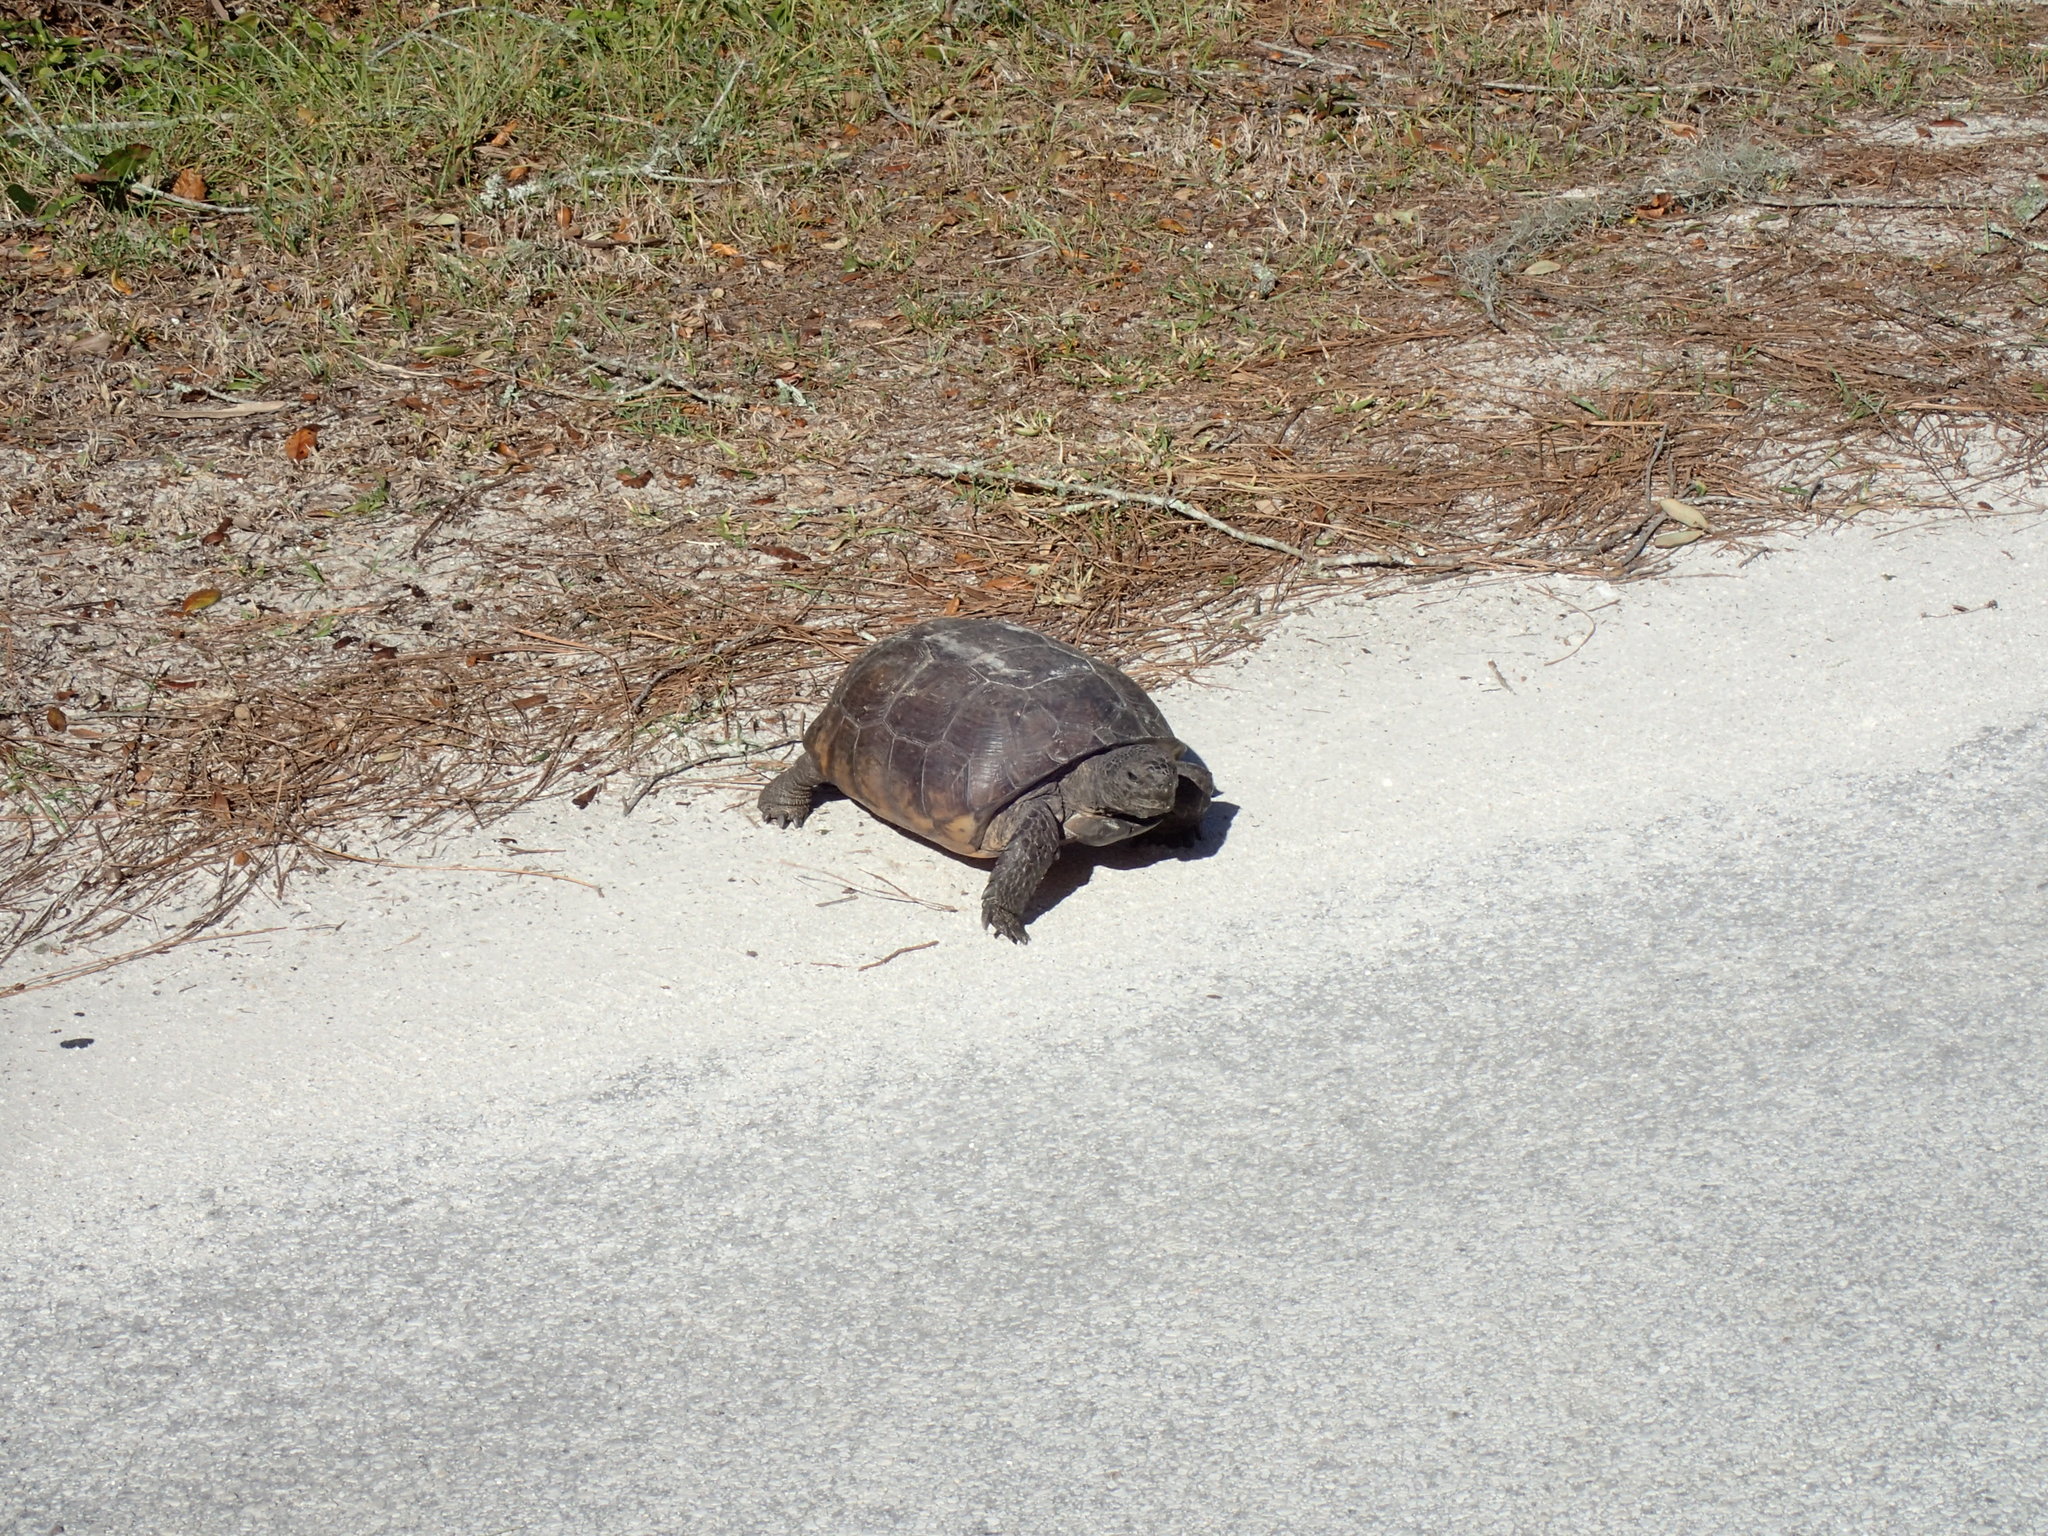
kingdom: Animalia
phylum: Chordata
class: Testudines
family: Testudinidae
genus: Gopherus
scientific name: Gopherus polyphemus
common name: Florida gopher tortoise
